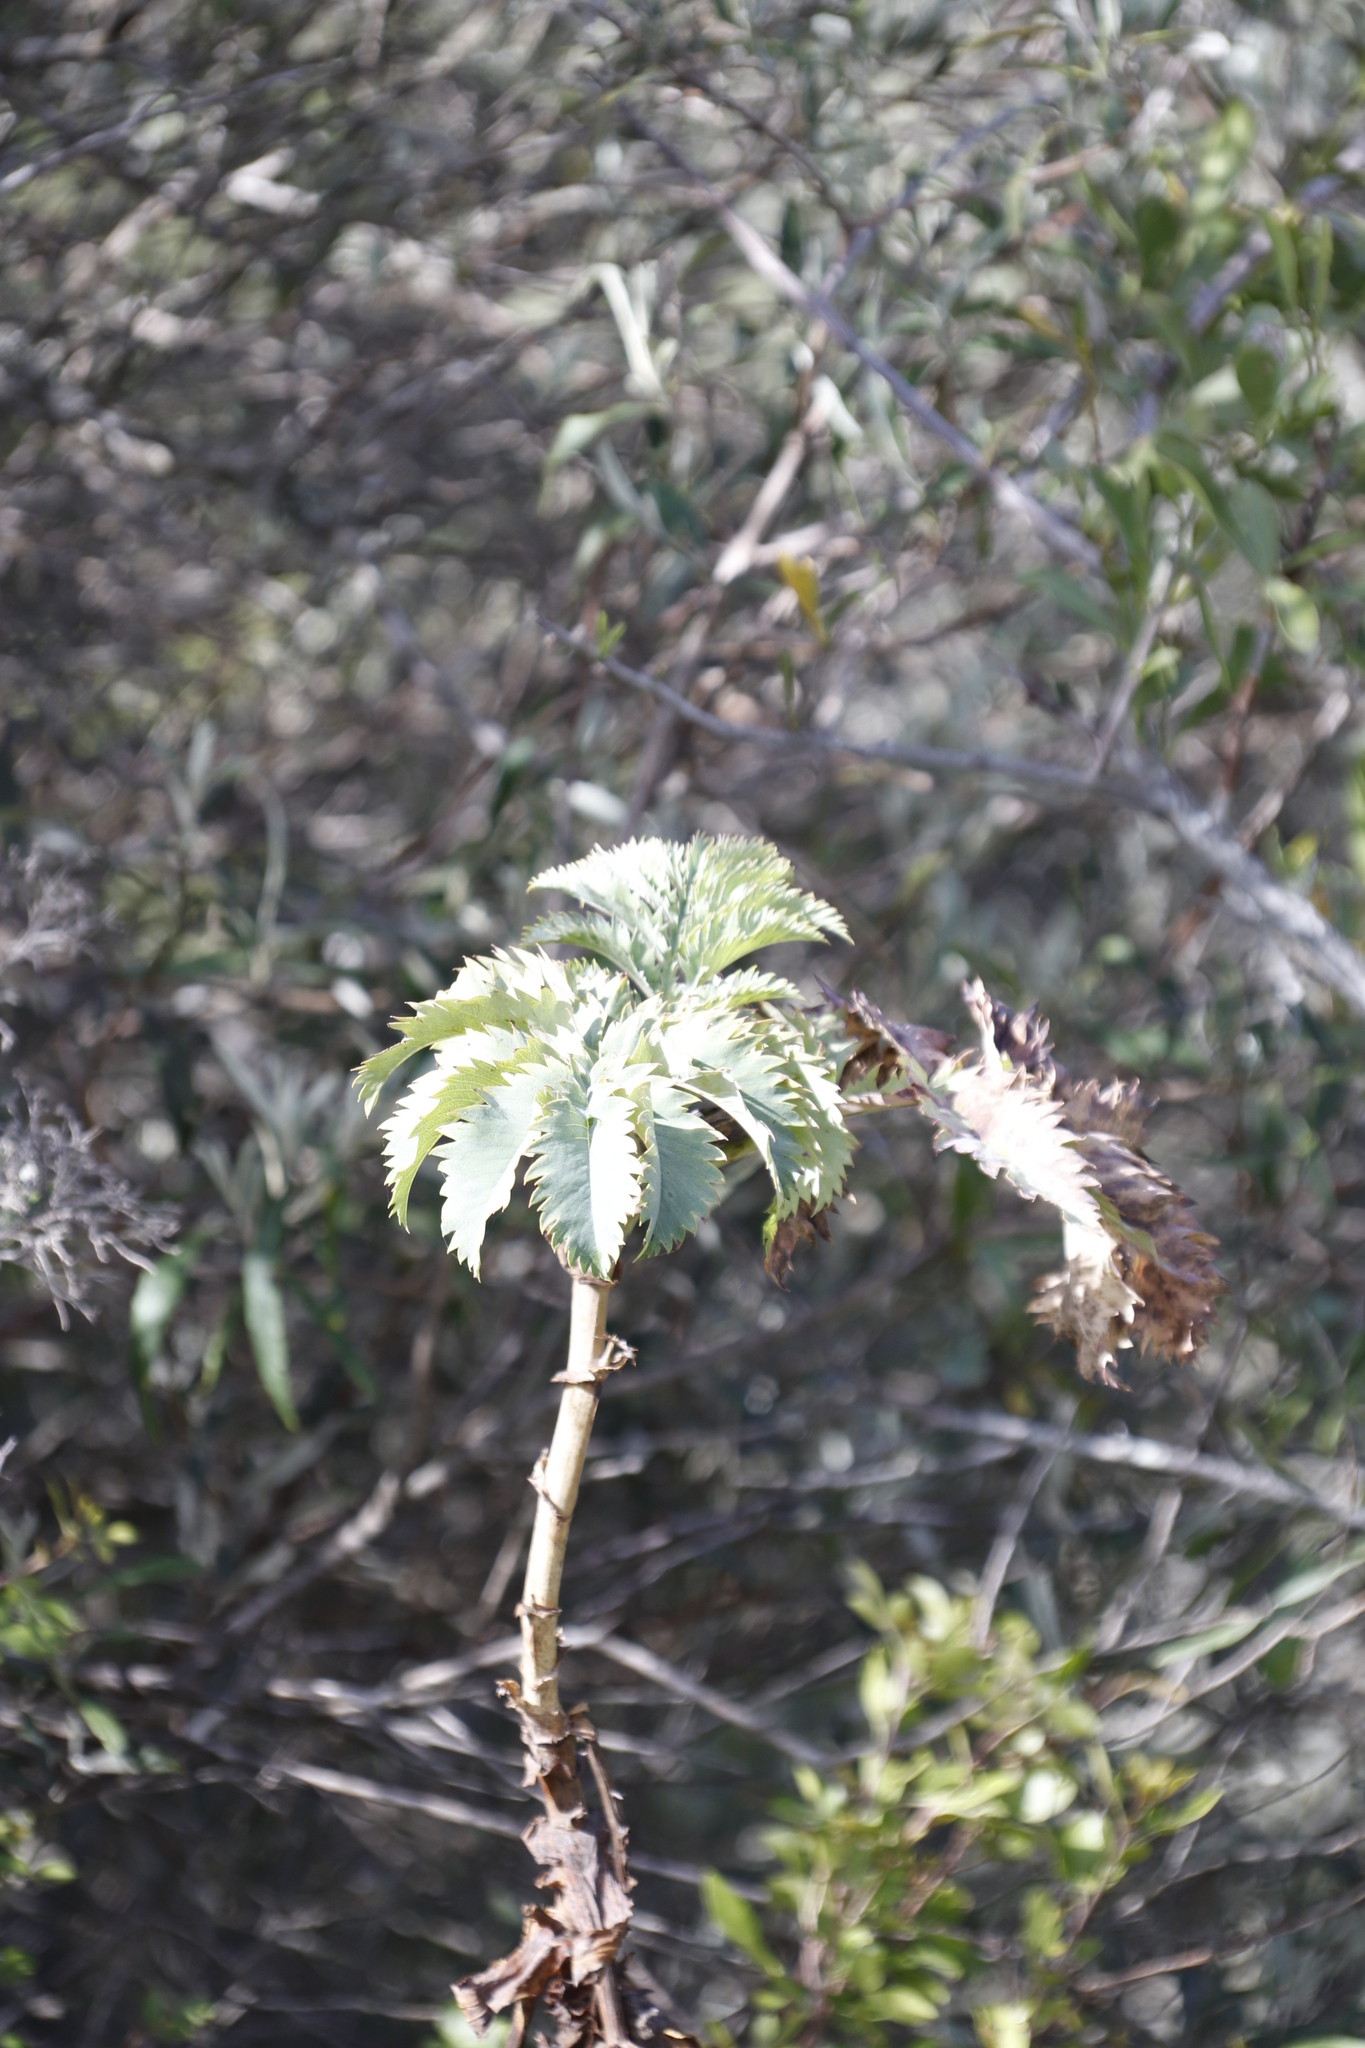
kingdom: Plantae
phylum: Tracheophyta
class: Magnoliopsida
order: Geraniales
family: Melianthaceae
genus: Melianthus
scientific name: Melianthus major
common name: Honey-flower
